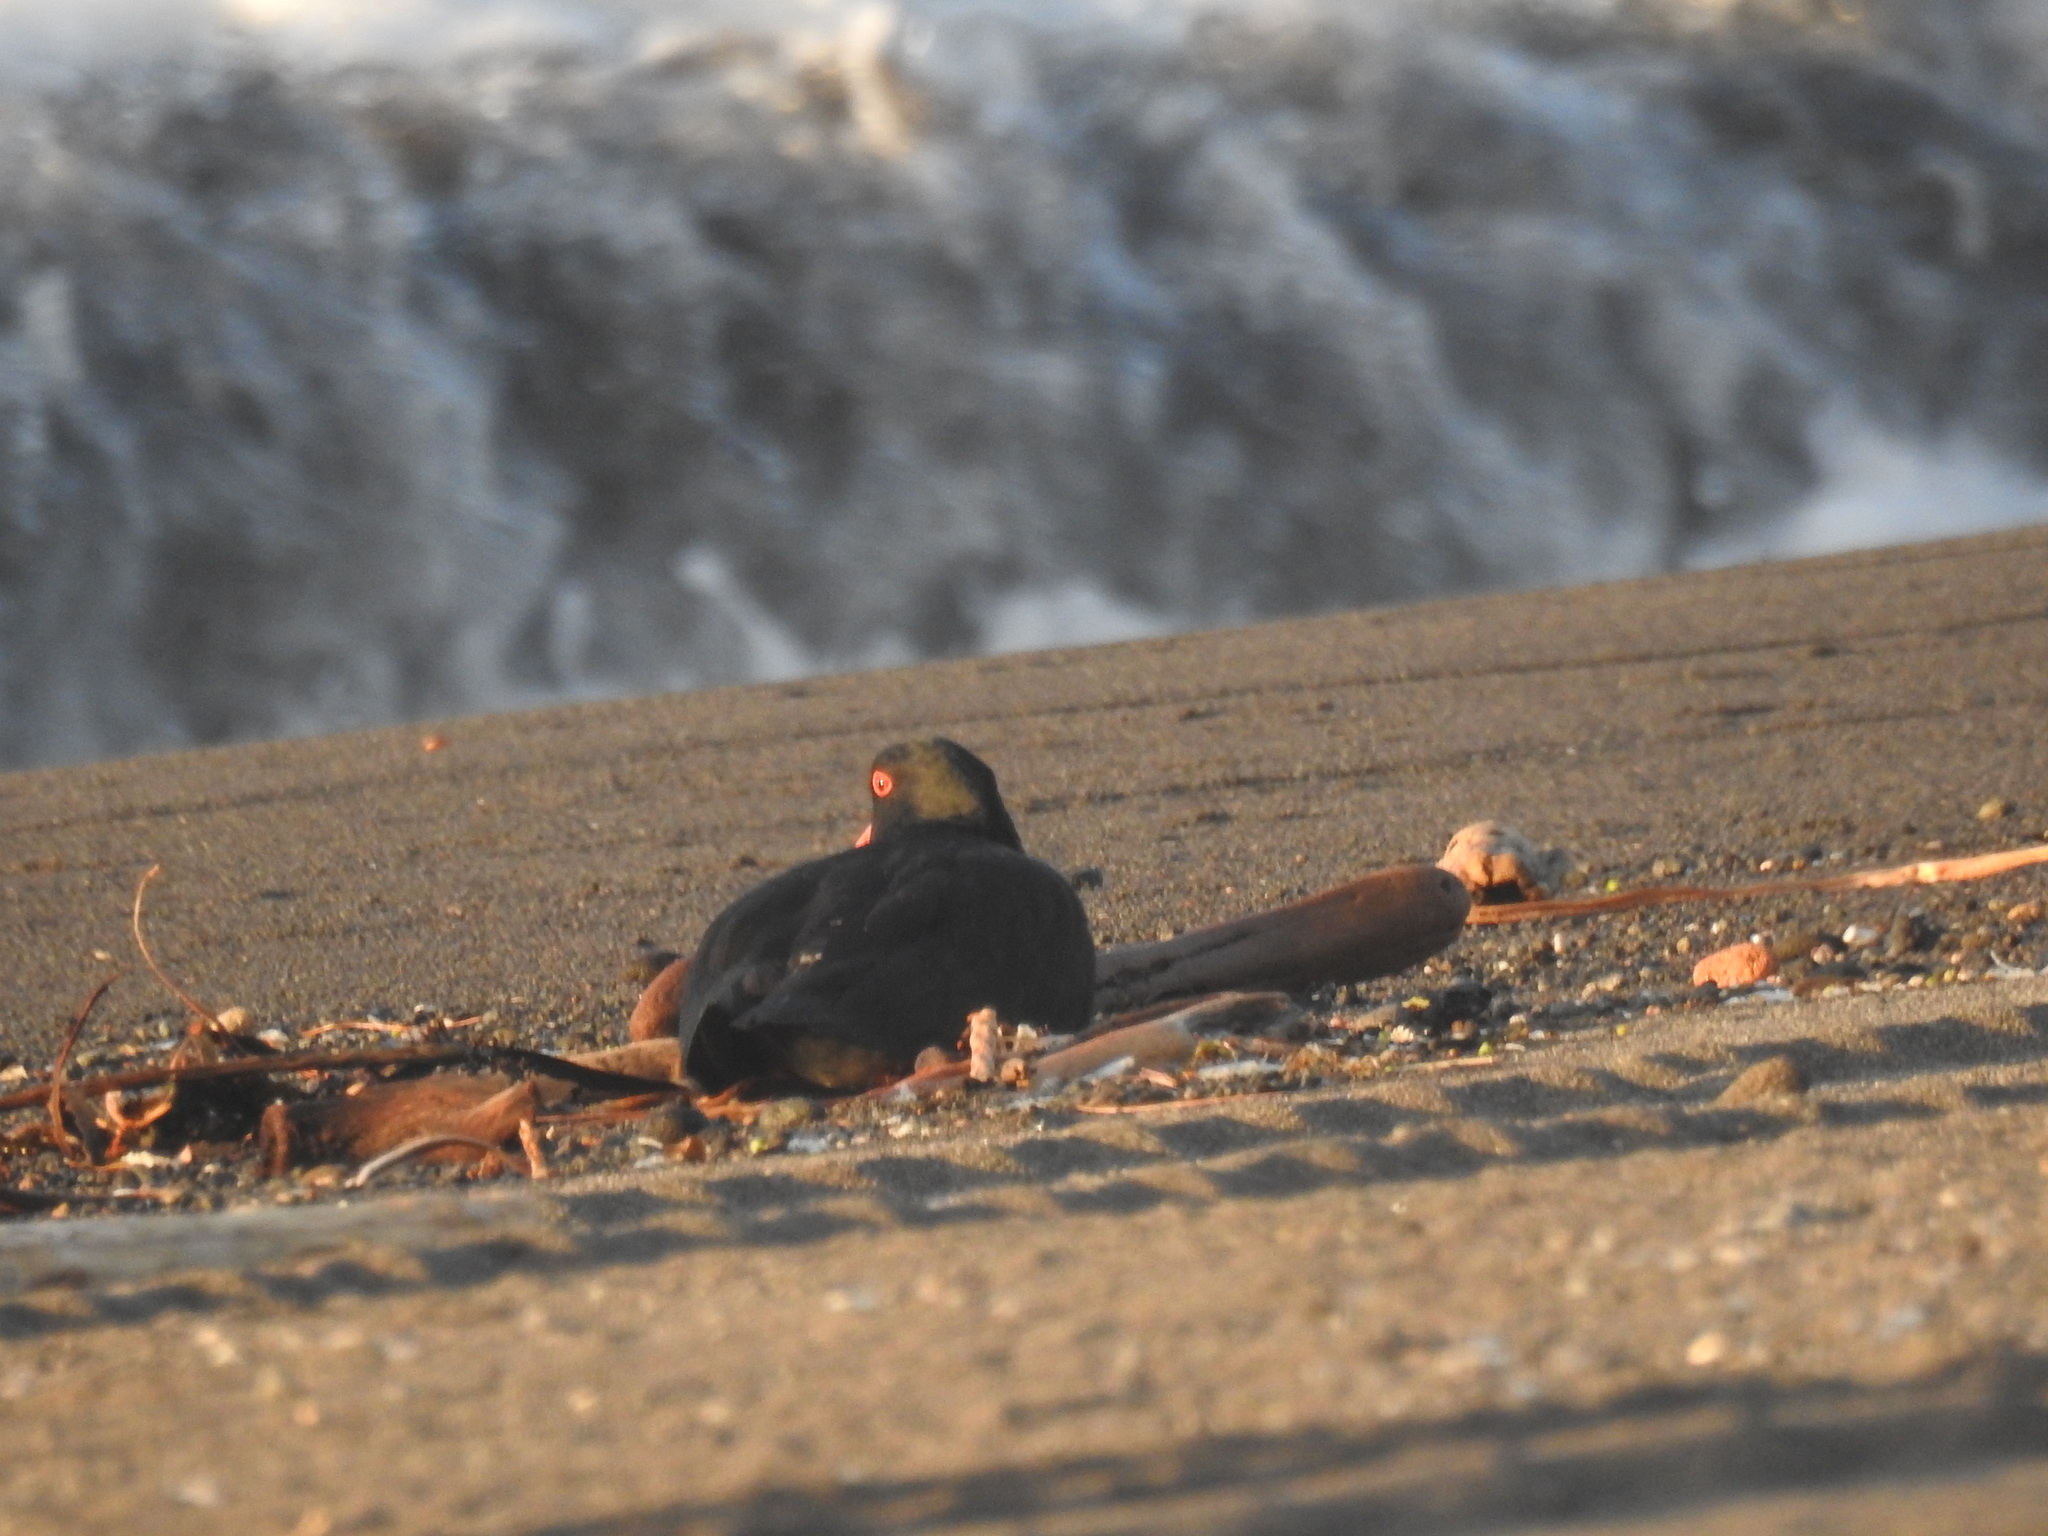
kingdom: Animalia
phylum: Chordata
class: Aves
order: Charadriiformes
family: Haematopodidae
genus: Haematopus
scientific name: Haematopus unicolor
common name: Variable oystercatcher
